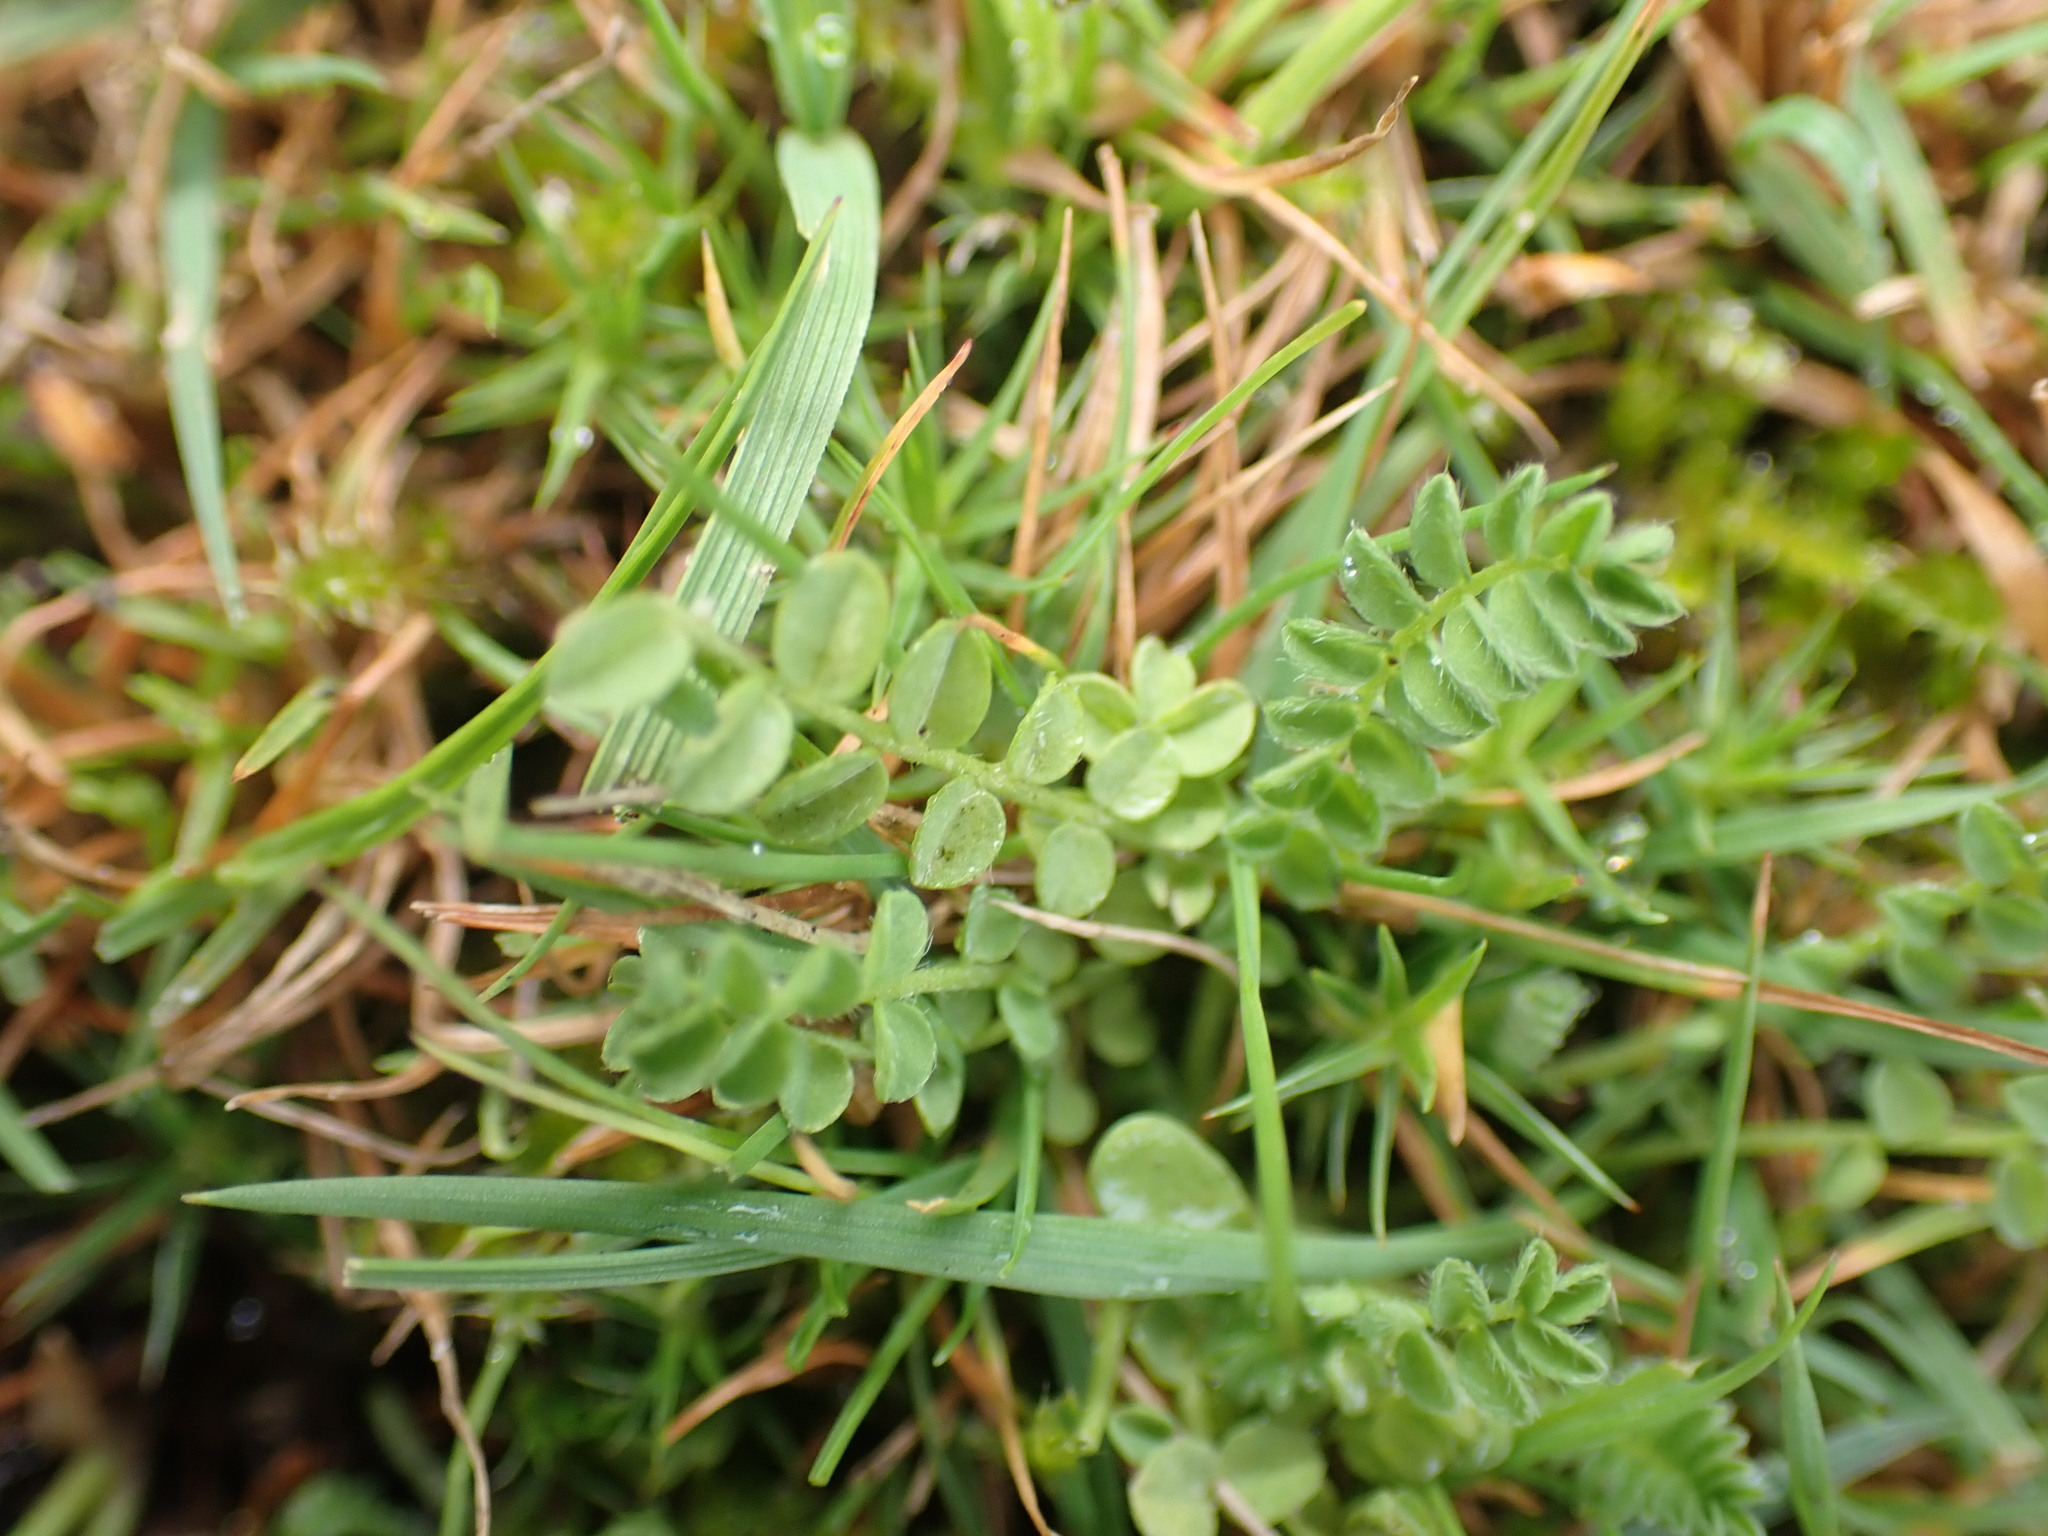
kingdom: Plantae
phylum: Tracheophyta
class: Magnoliopsida
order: Fabales
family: Fabaceae
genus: Ornithopus
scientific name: Ornithopus perpusillus
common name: Bird's-foot
